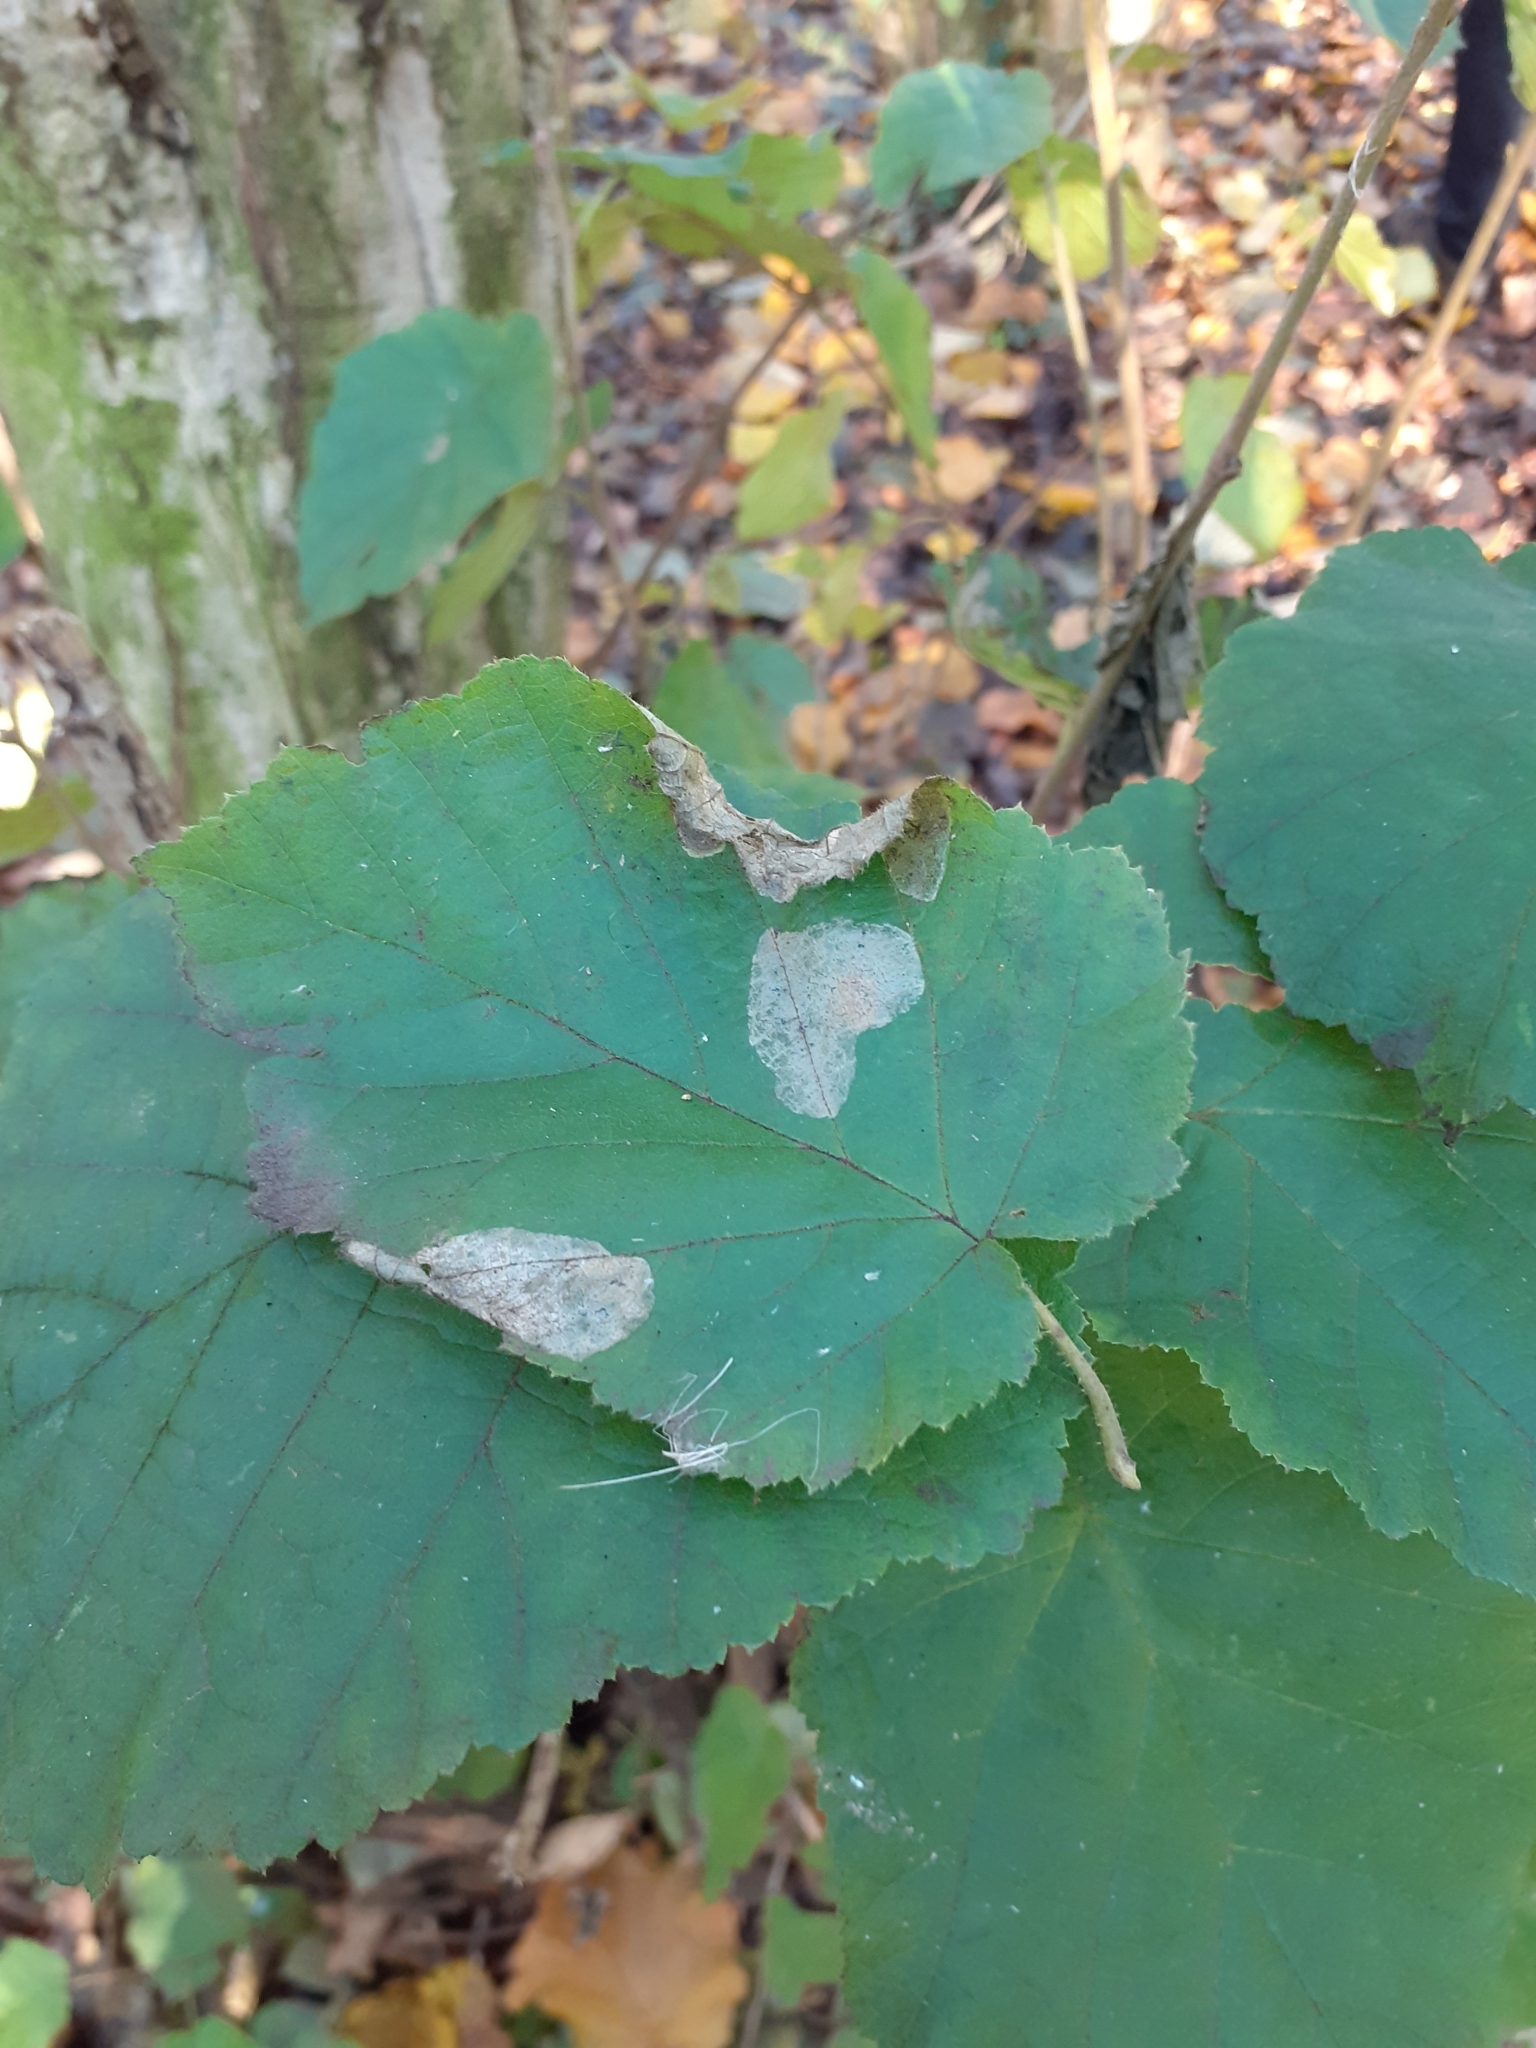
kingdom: Animalia
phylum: Arthropoda
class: Insecta
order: Lepidoptera
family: Gracillariidae
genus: Phyllonorycter
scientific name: Phyllonorycter coryli
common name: Nut-leaf blister moth
